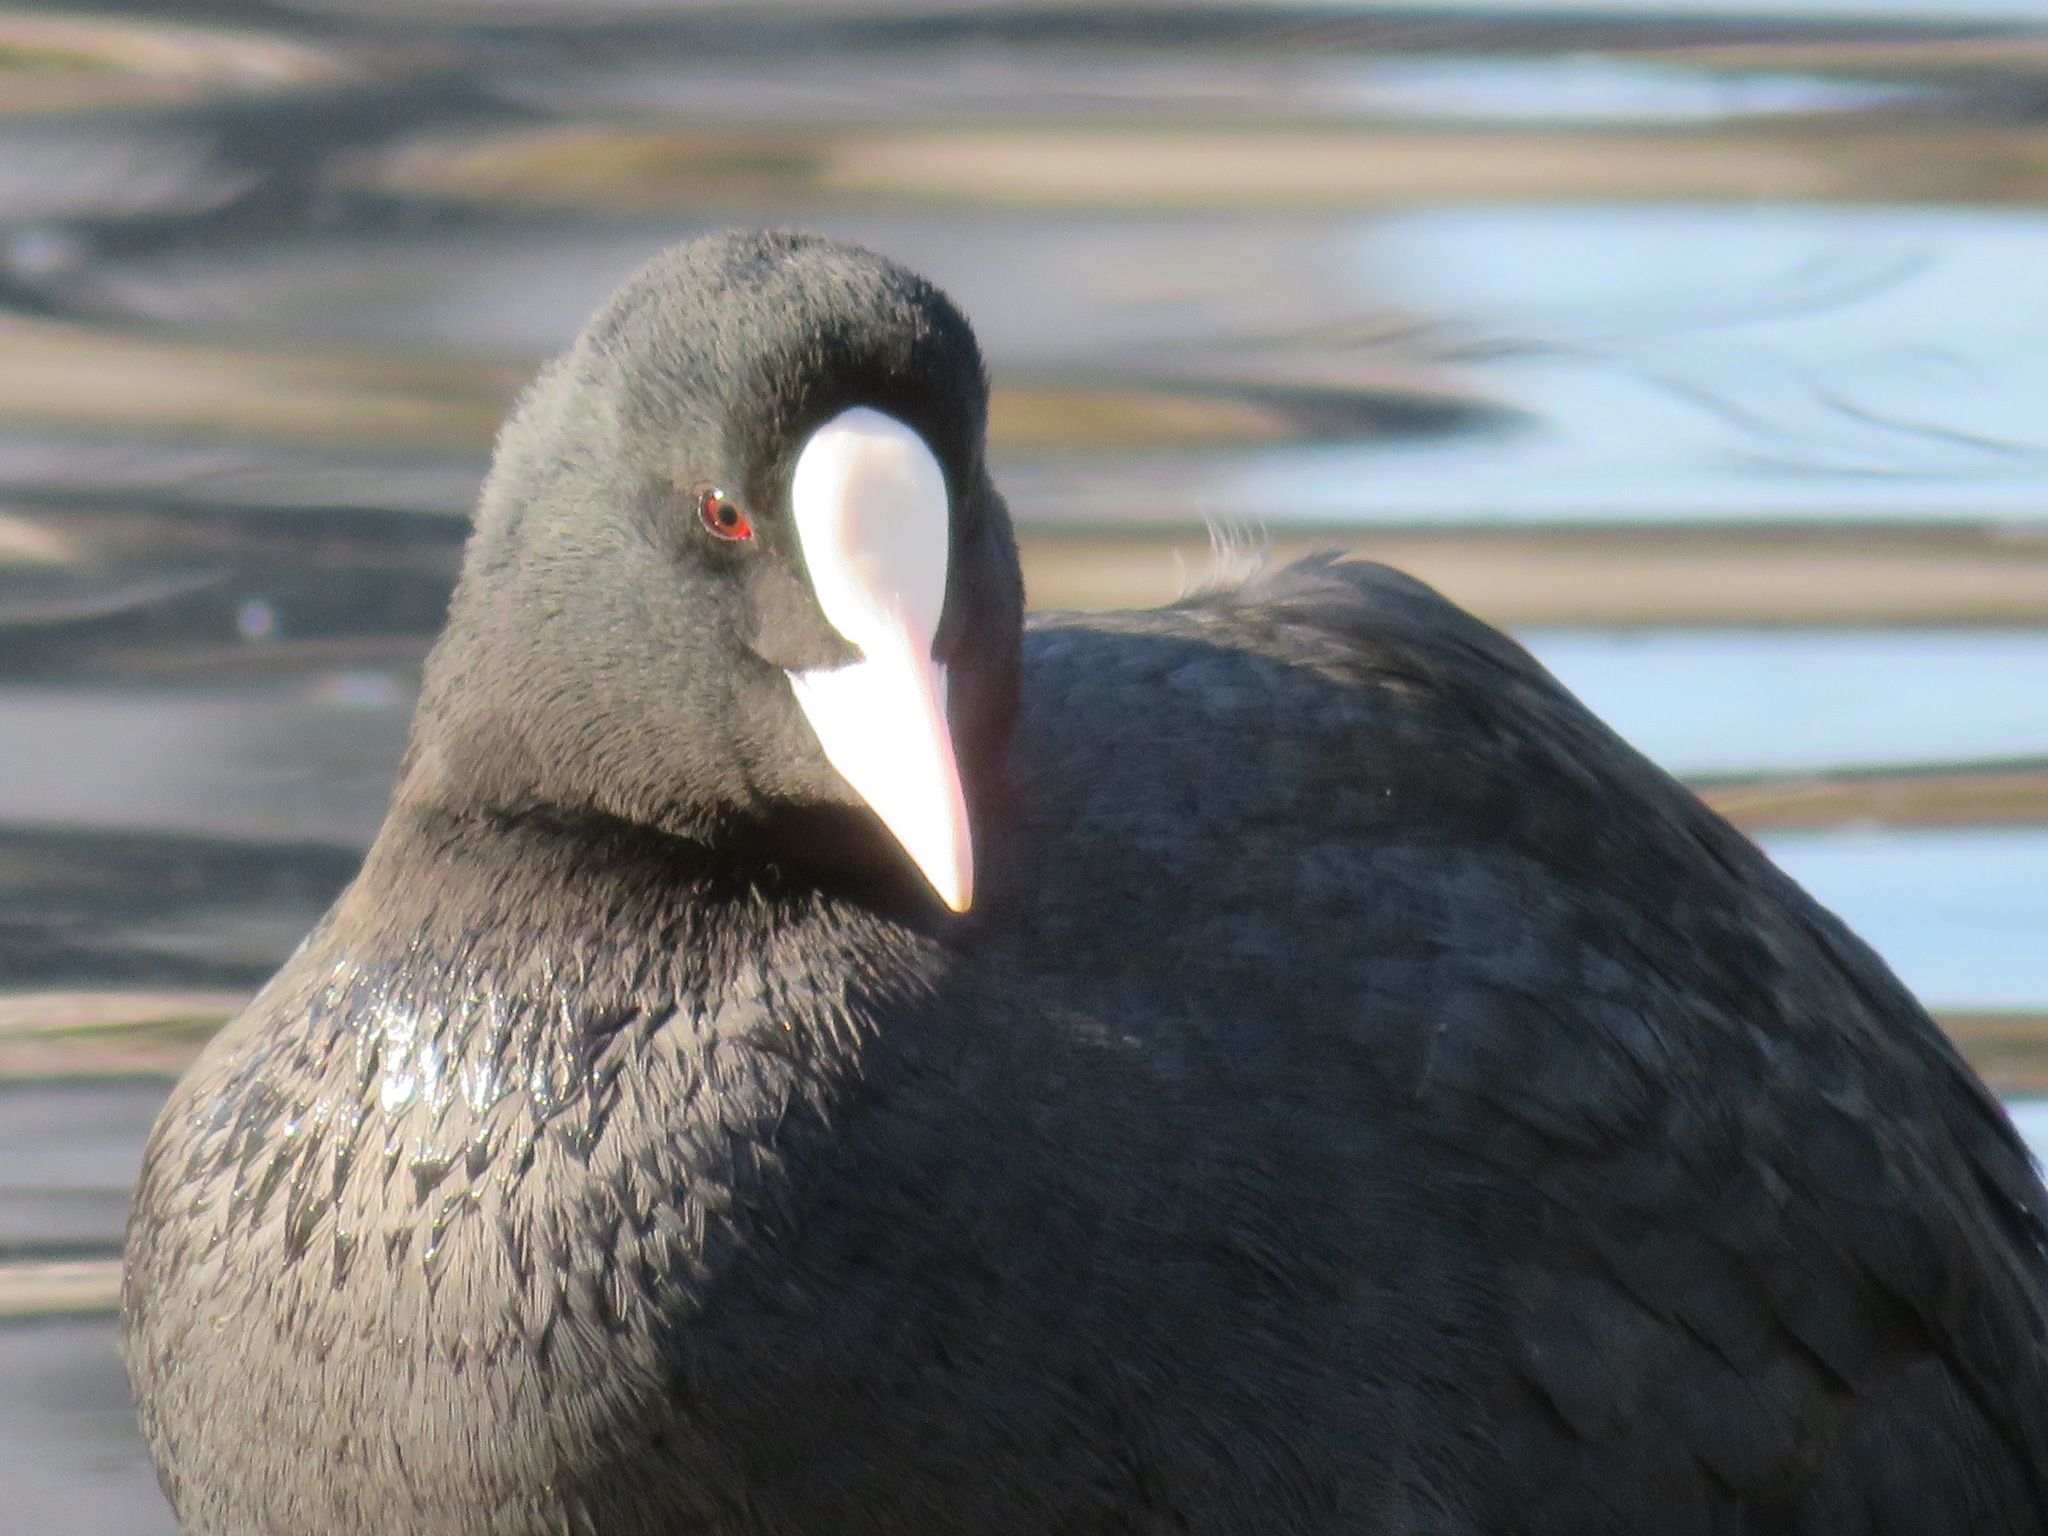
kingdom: Animalia
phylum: Chordata
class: Aves
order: Gruiformes
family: Rallidae
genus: Fulica
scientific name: Fulica atra
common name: Eurasian coot
